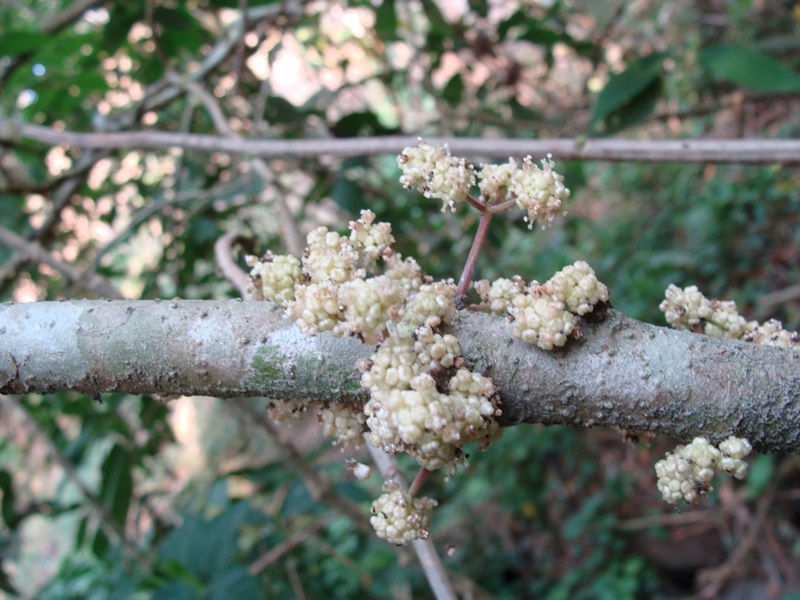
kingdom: Plantae
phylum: Tracheophyta
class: Magnoliopsida
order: Rosales
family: Urticaceae
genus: Urera
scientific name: Urera elata
